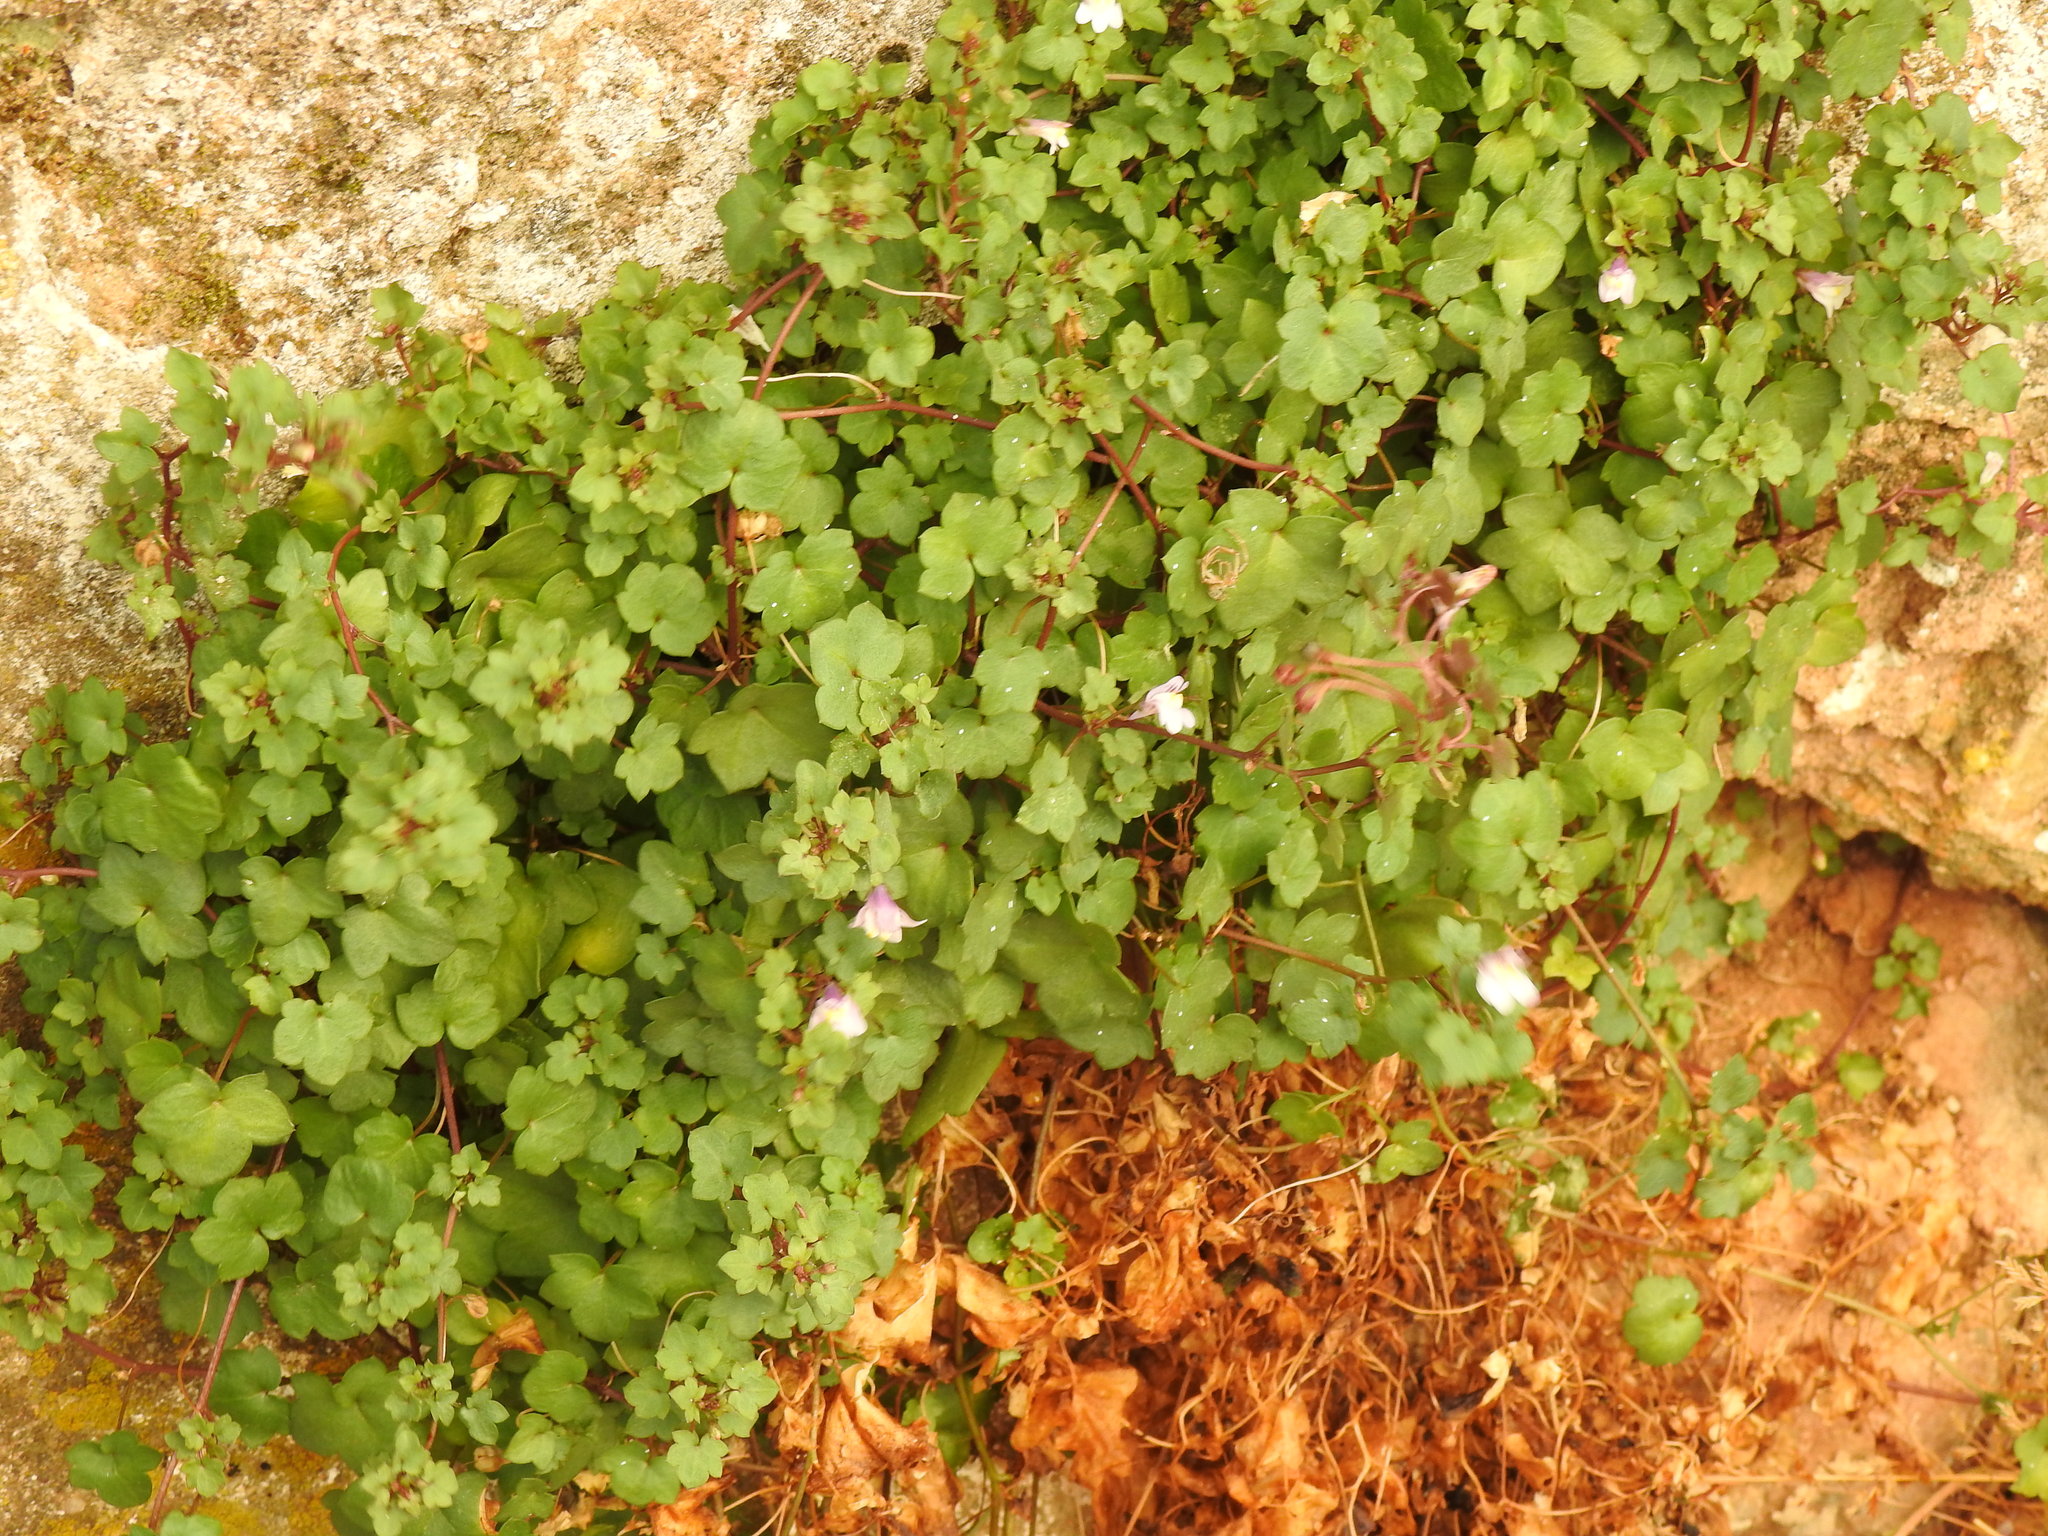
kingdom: Plantae
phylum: Tracheophyta
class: Magnoliopsida
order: Lamiales
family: Plantaginaceae
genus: Cymbalaria
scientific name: Cymbalaria muralis
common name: Ivy-leaved toadflax
